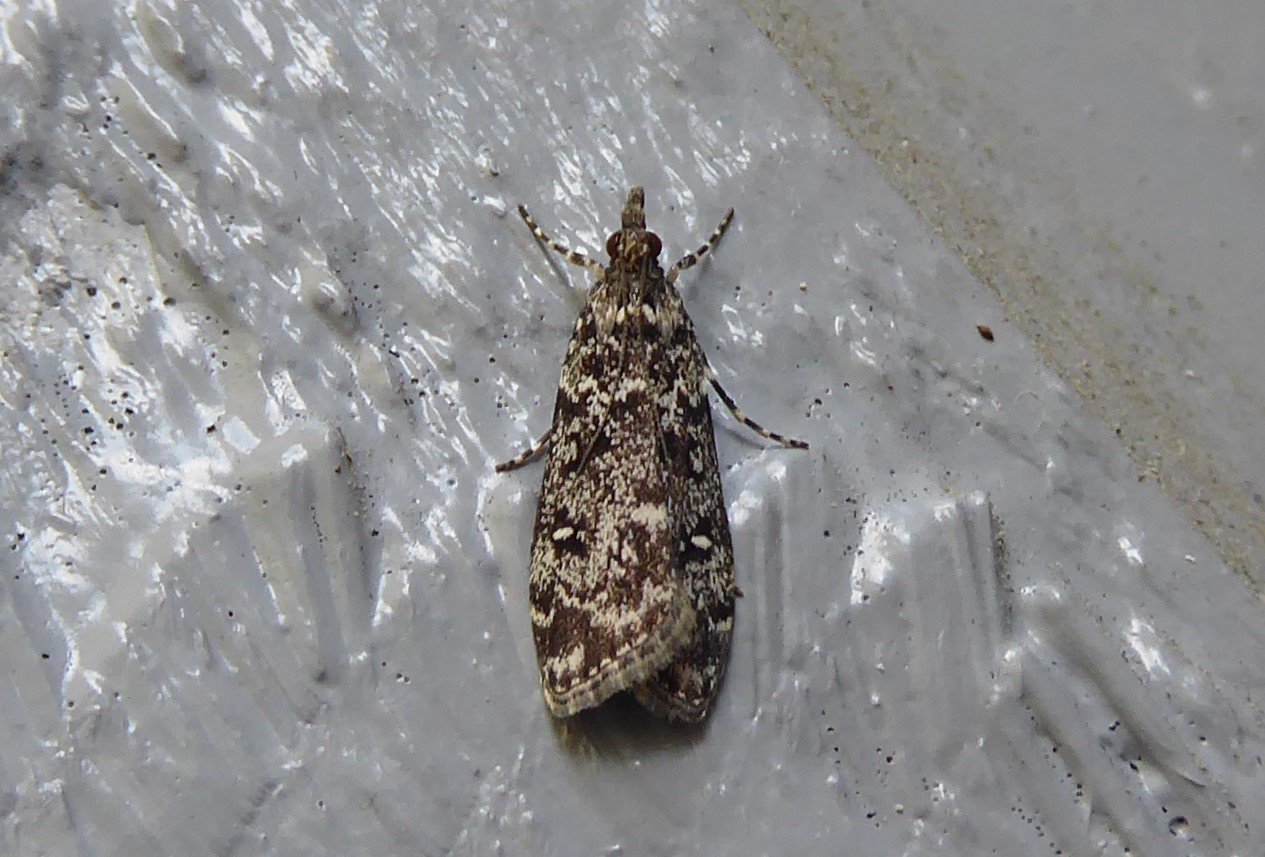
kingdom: Animalia
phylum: Arthropoda
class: Insecta
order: Lepidoptera
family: Crambidae
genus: Eudonia
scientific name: Eudonia philerga
